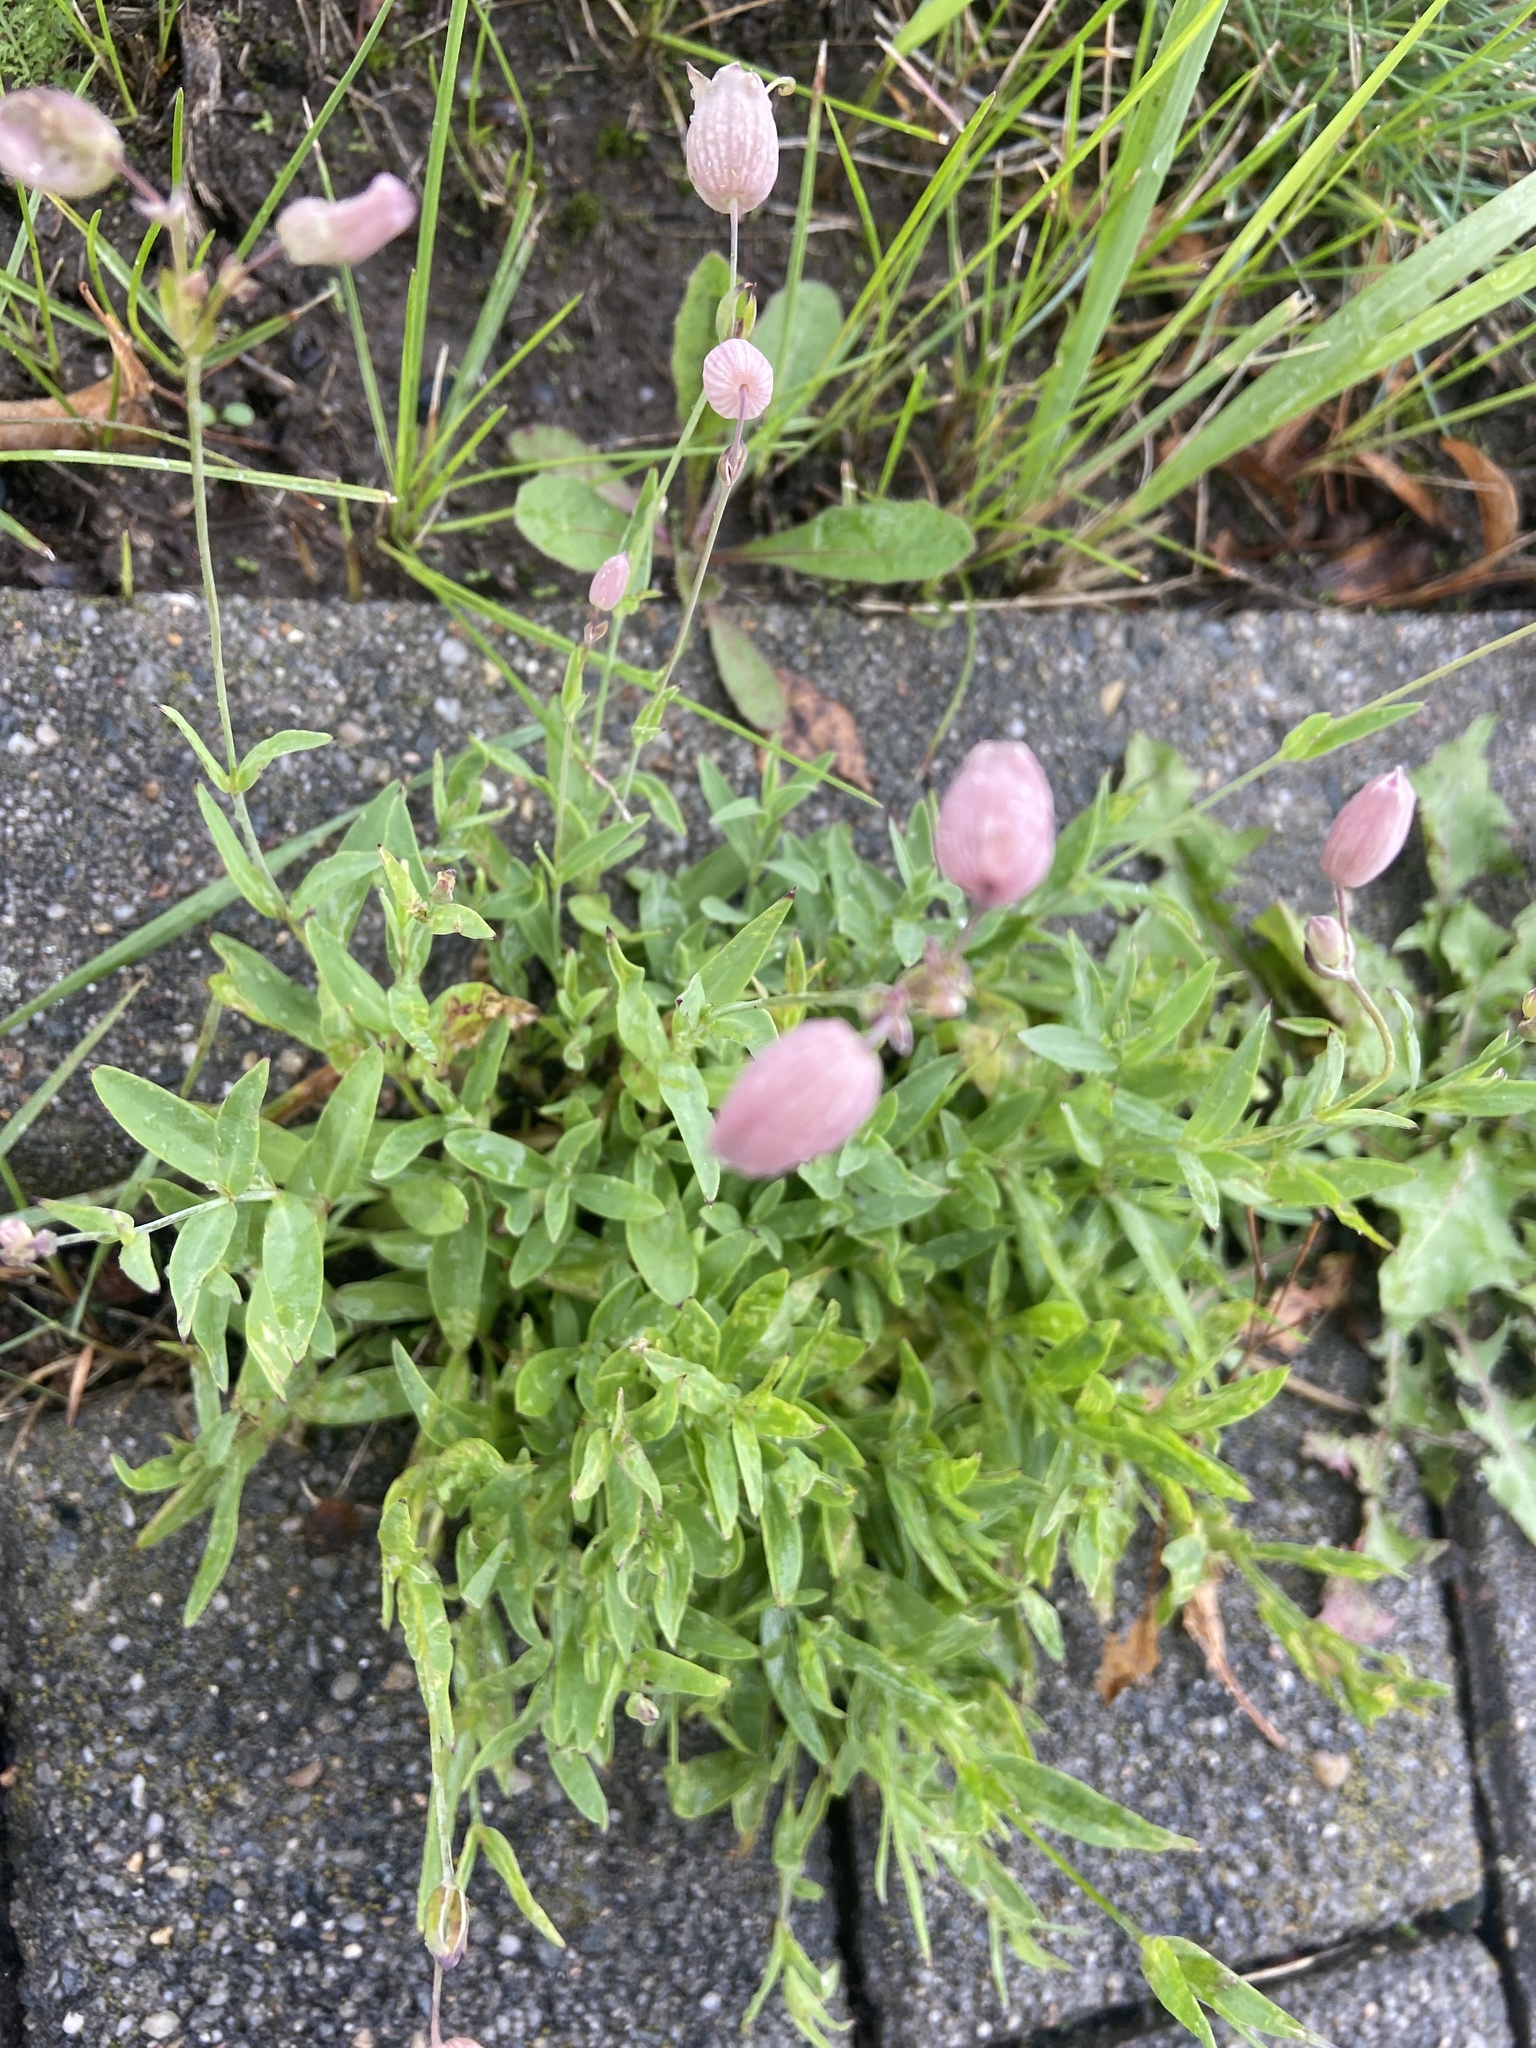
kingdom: Plantae
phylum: Tracheophyta
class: Magnoliopsida
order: Caryophyllales
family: Caryophyllaceae
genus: Silene
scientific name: Silene vulgaris
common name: Bladder campion
